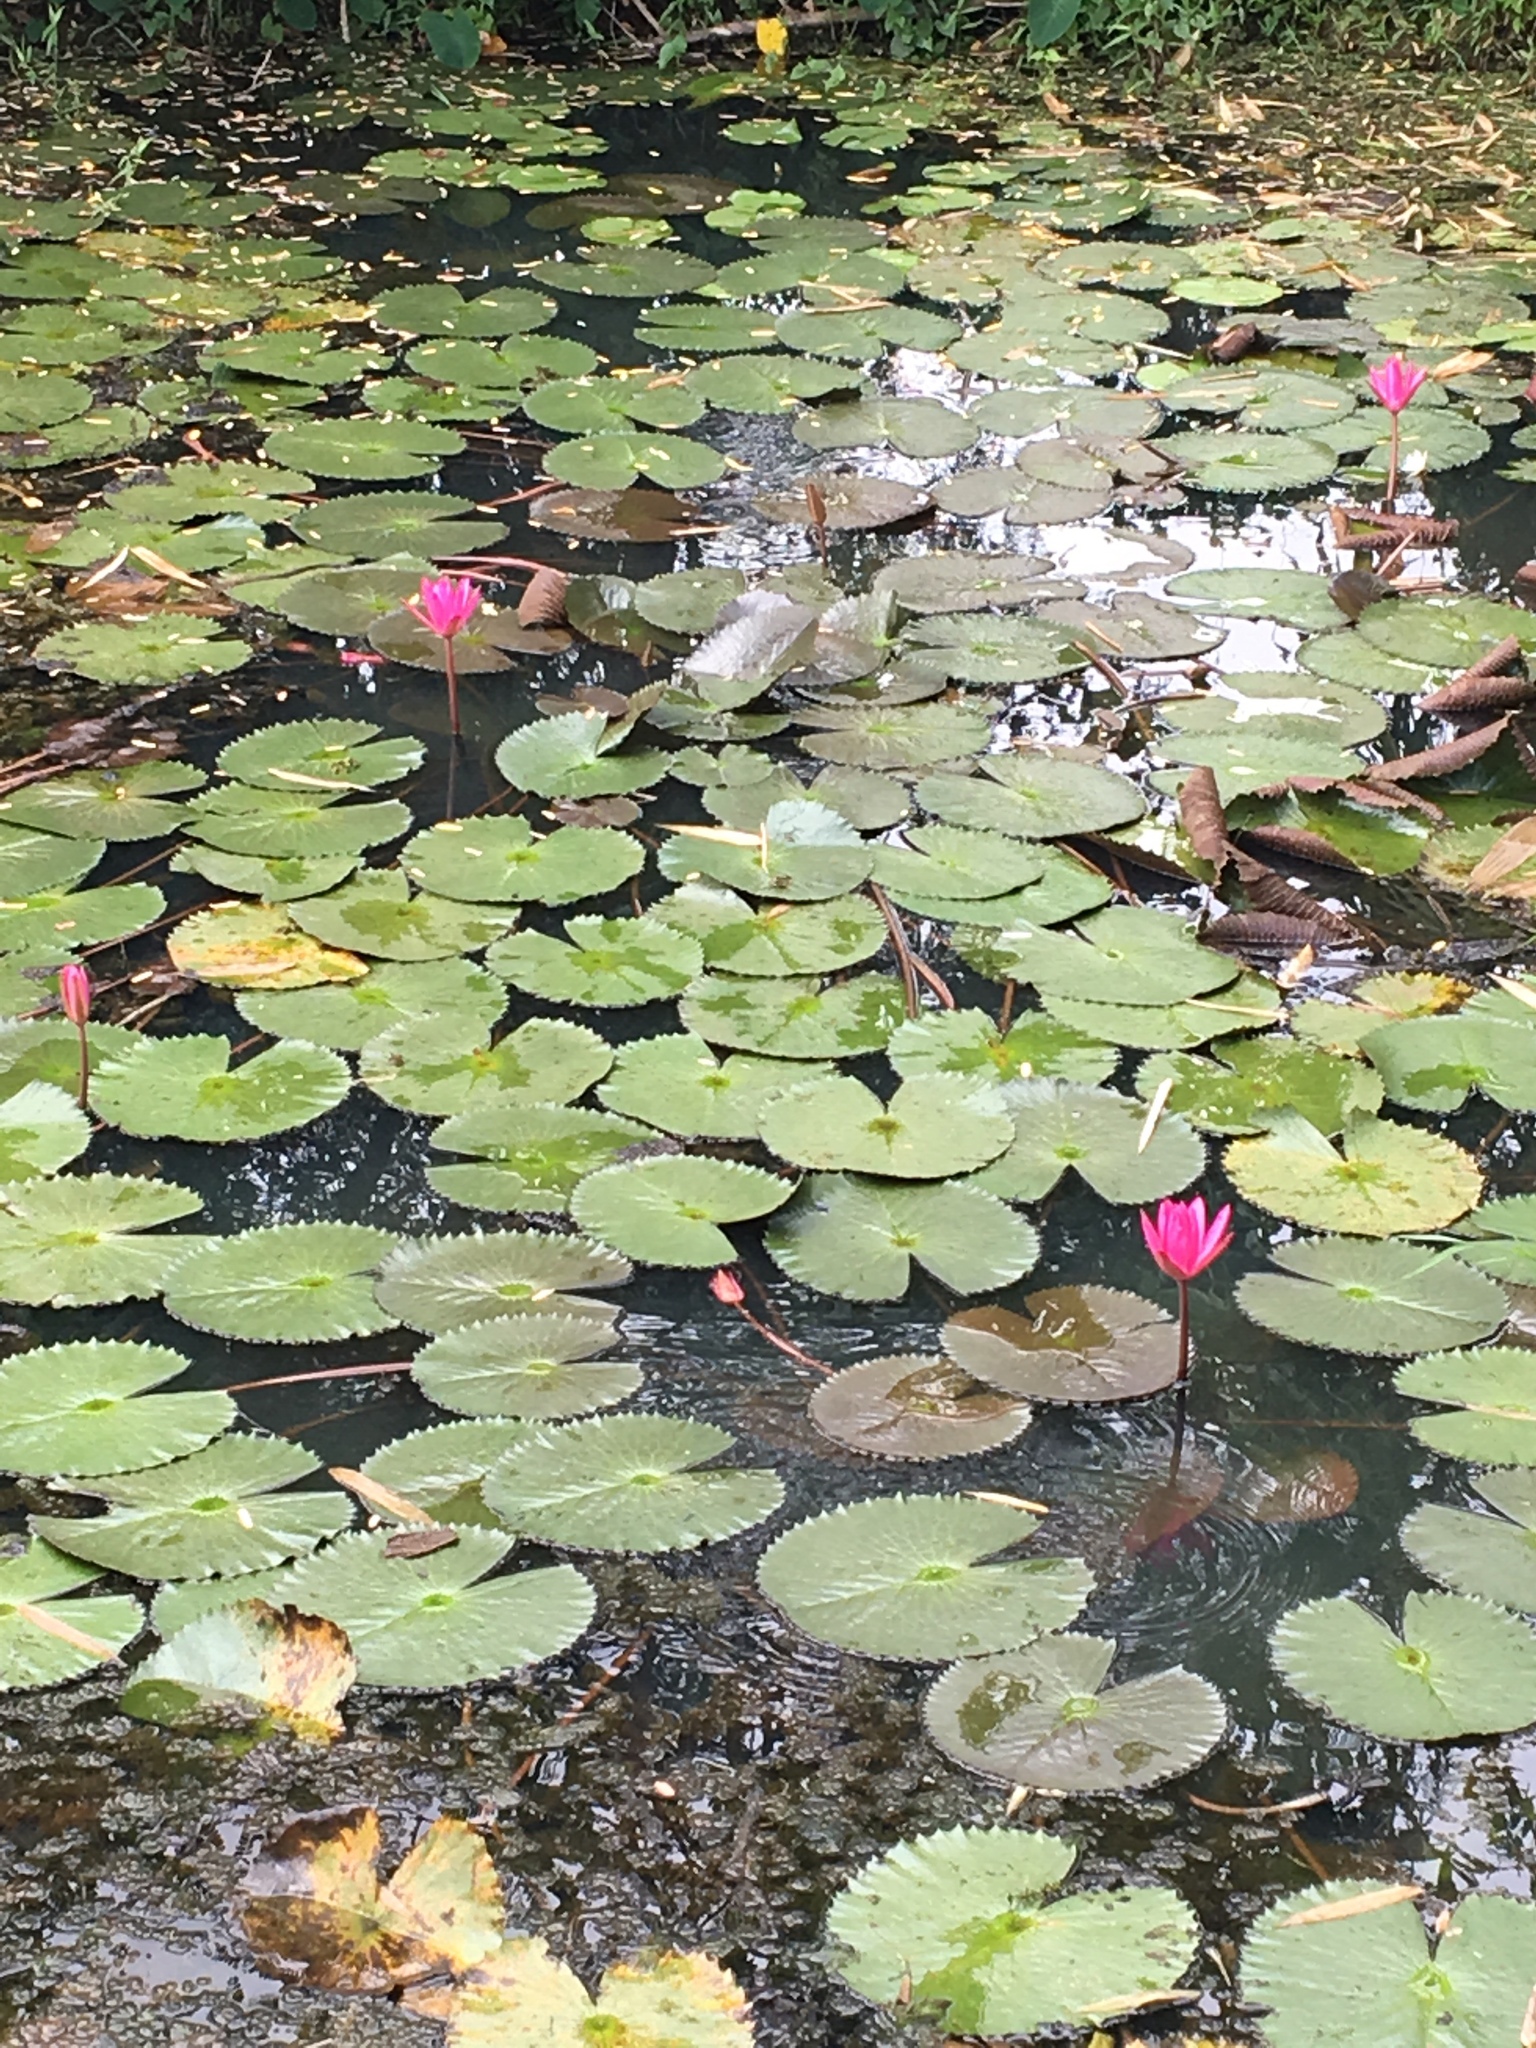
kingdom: Plantae
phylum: Tracheophyta
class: Magnoliopsida
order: Nymphaeales
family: Nymphaeaceae
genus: Nymphaea
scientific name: Nymphaea rubra
